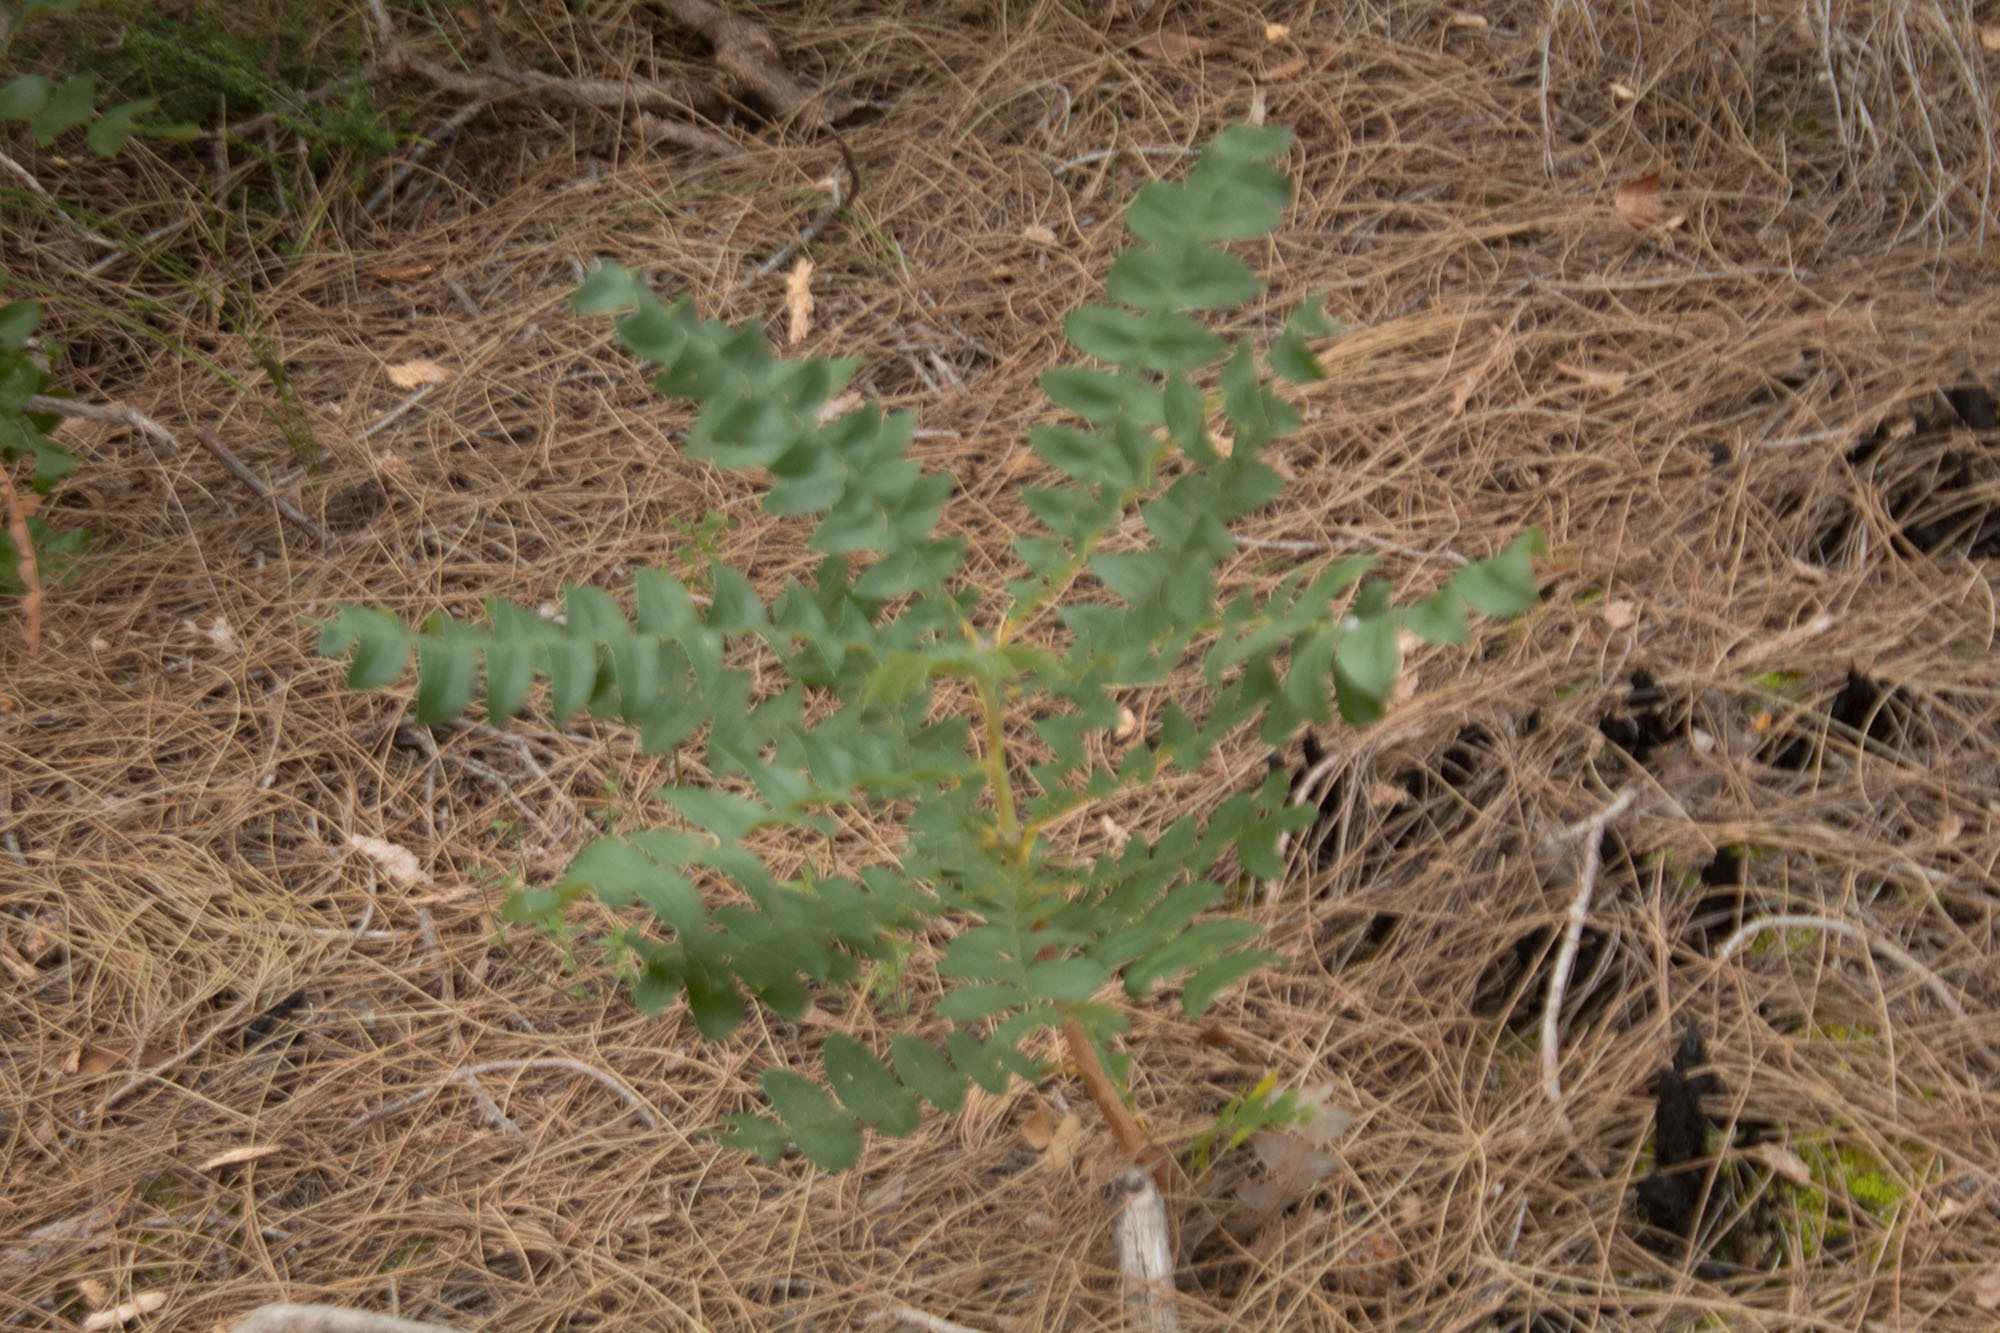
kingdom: Plantae
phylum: Tracheophyta
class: Magnoliopsida
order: Proteales
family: Proteaceae
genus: Banksia
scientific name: Banksia grandis
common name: Giant banksia
